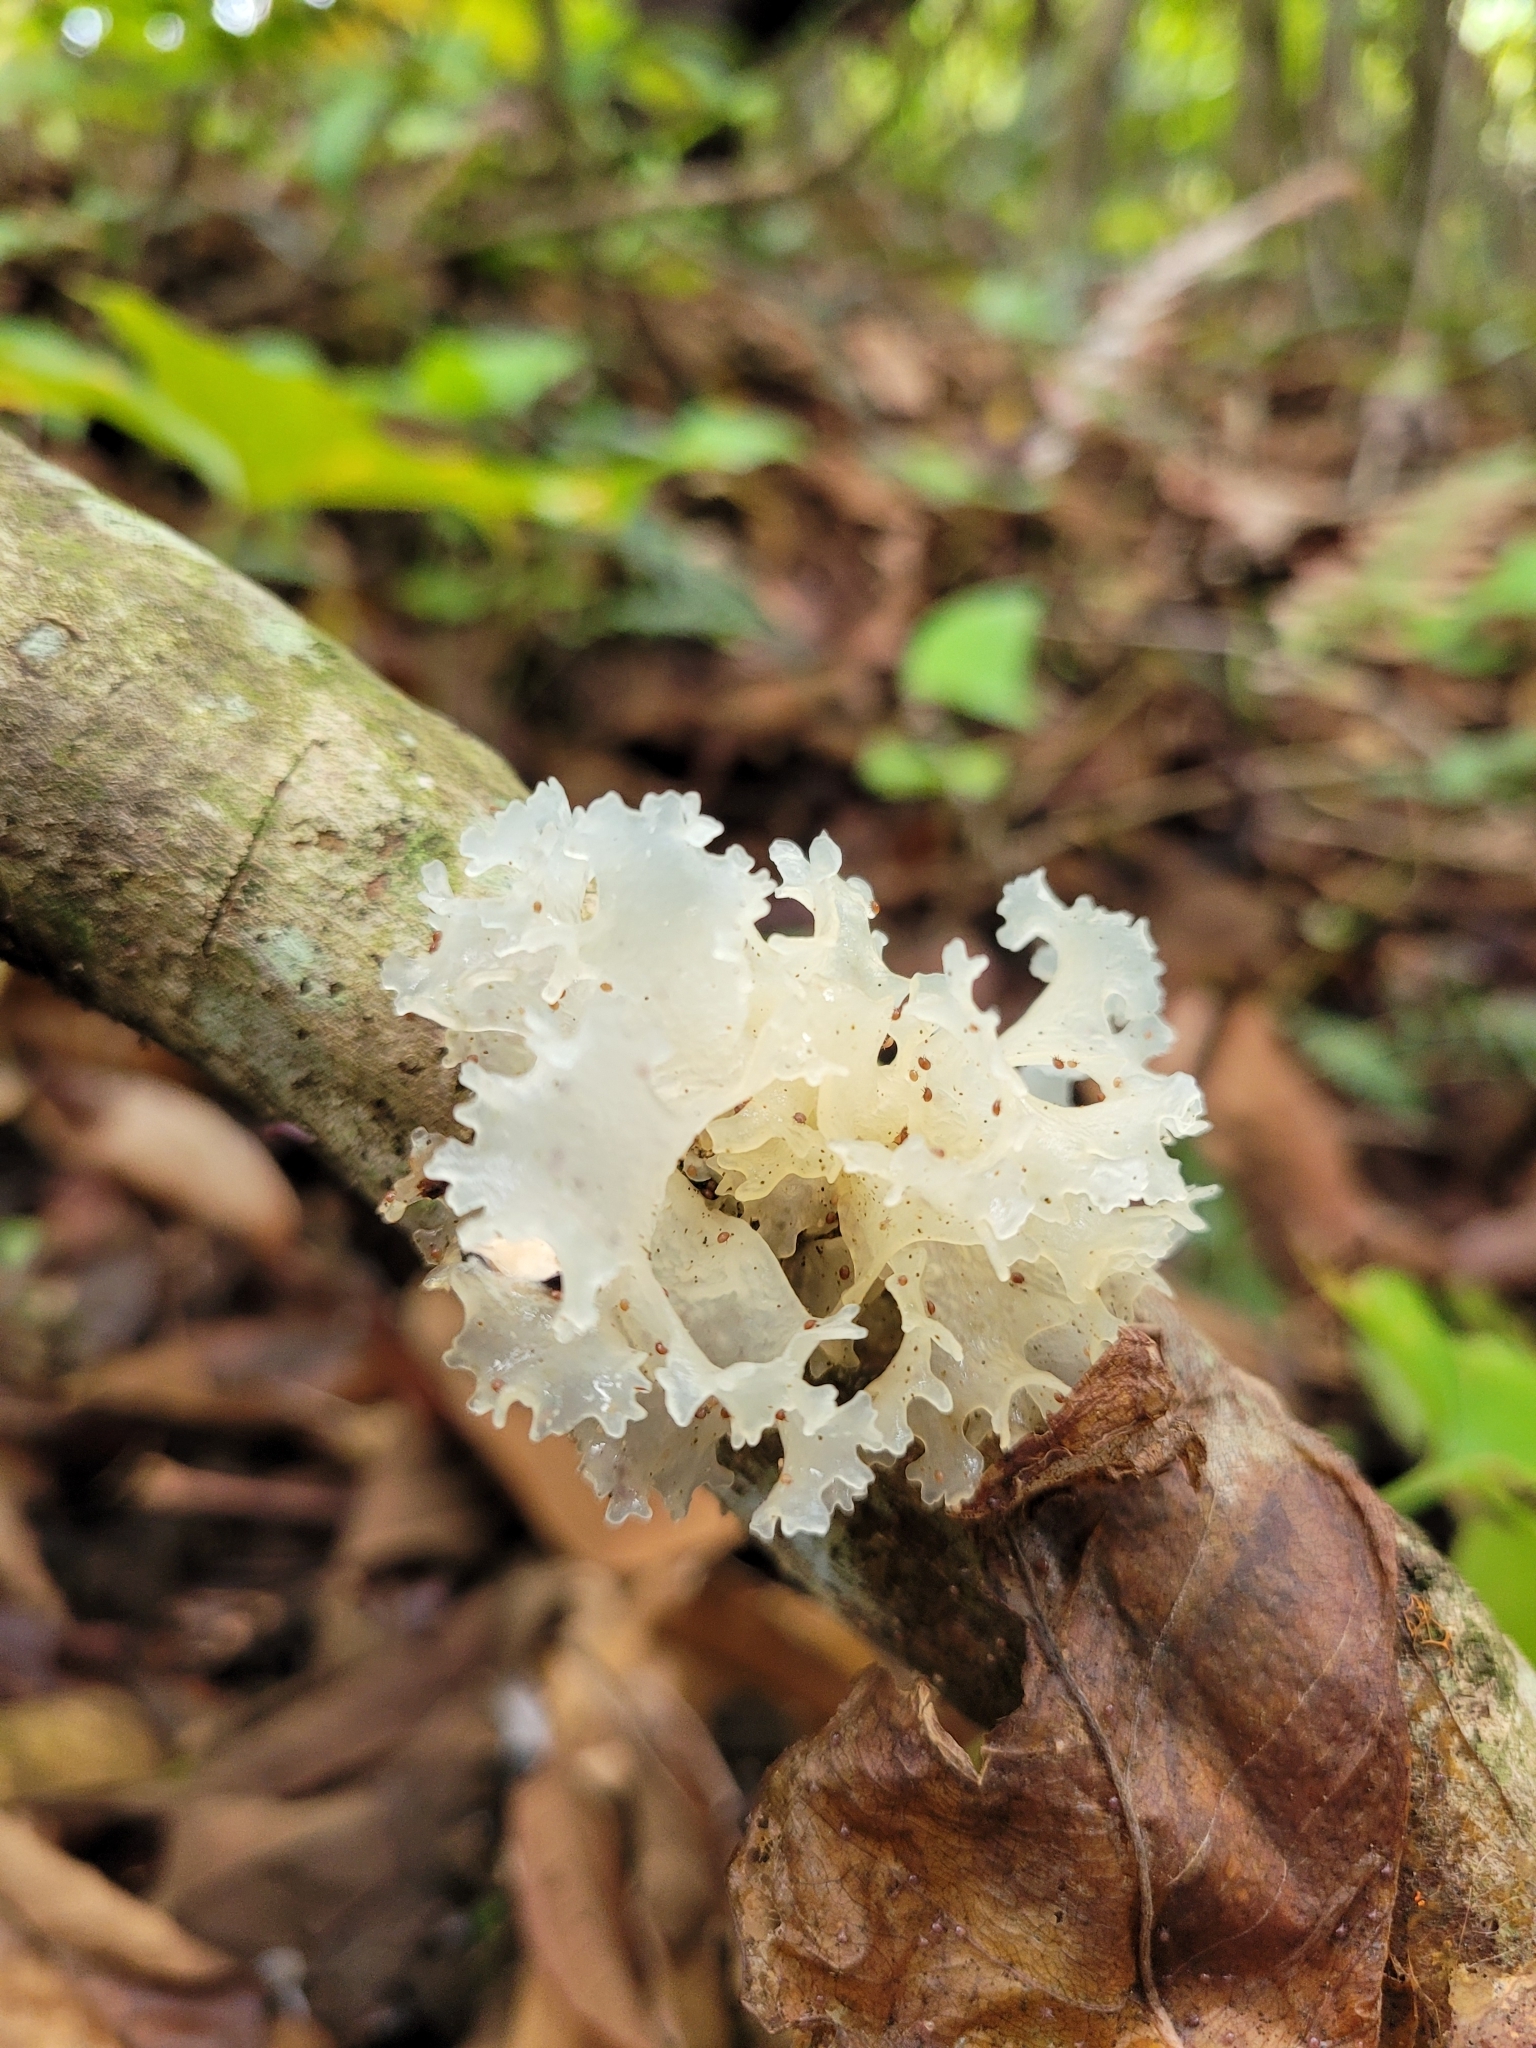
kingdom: Fungi
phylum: Basidiomycota
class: Tremellomycetes
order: Tremellales
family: Tremellaceae
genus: Tremella
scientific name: Tremella fuciformis
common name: Snow fungus
